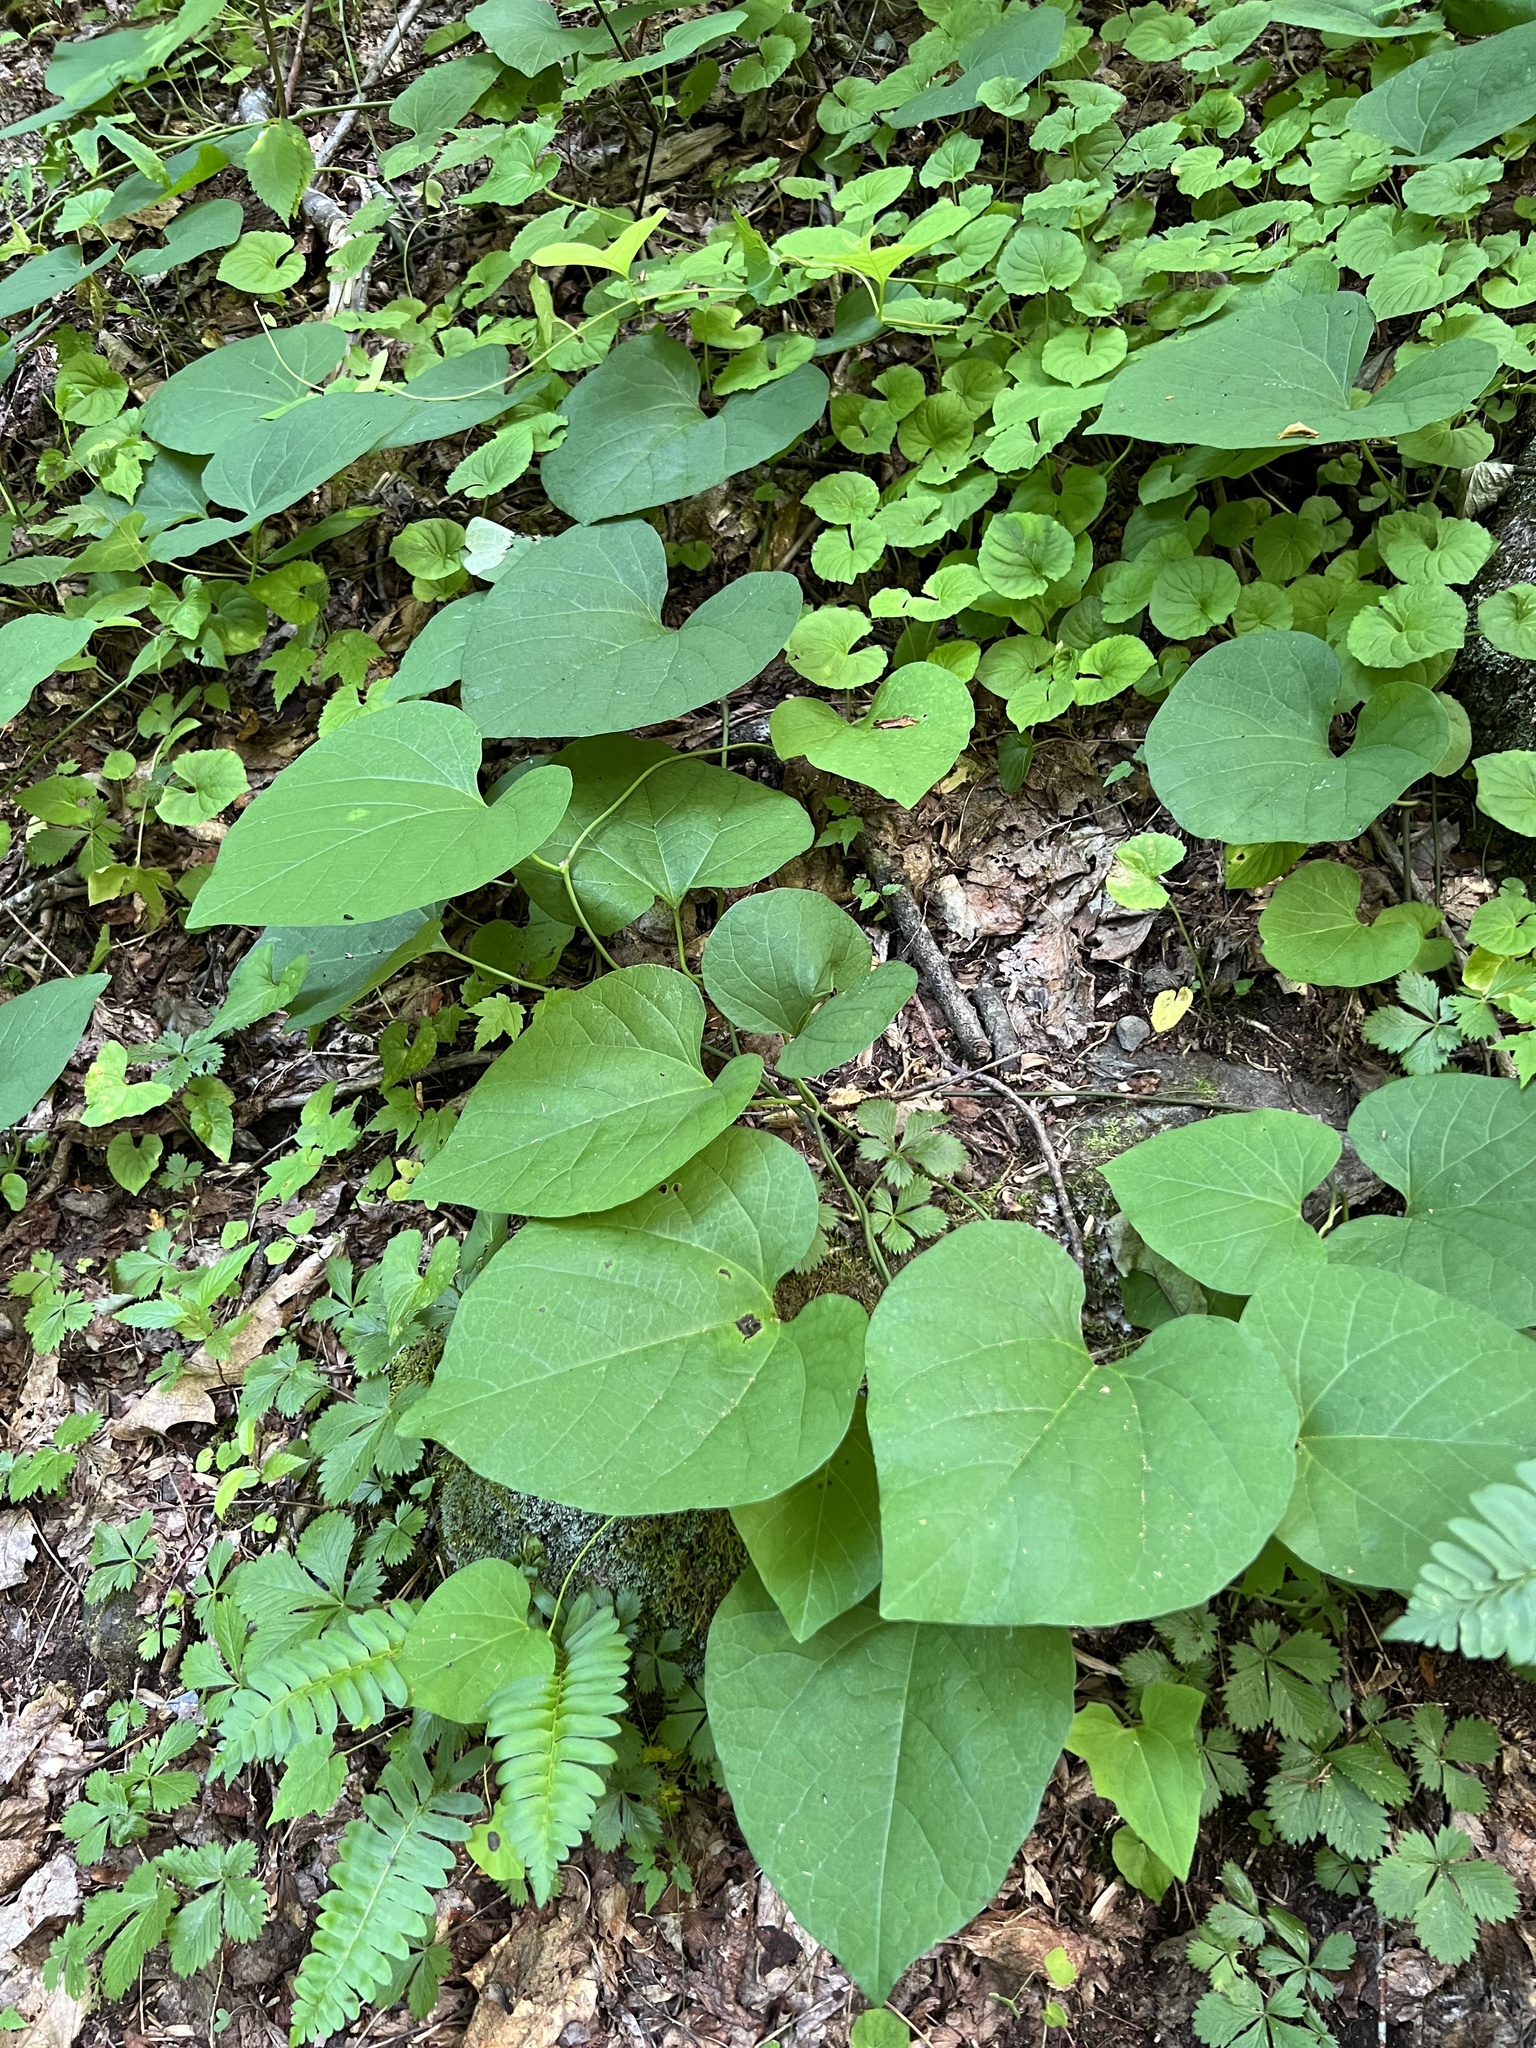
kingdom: Plantae
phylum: Tracheophyta
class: Magnoliopsida
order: Piperales
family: Aristolochiaceae
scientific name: Aristolochiaceae
